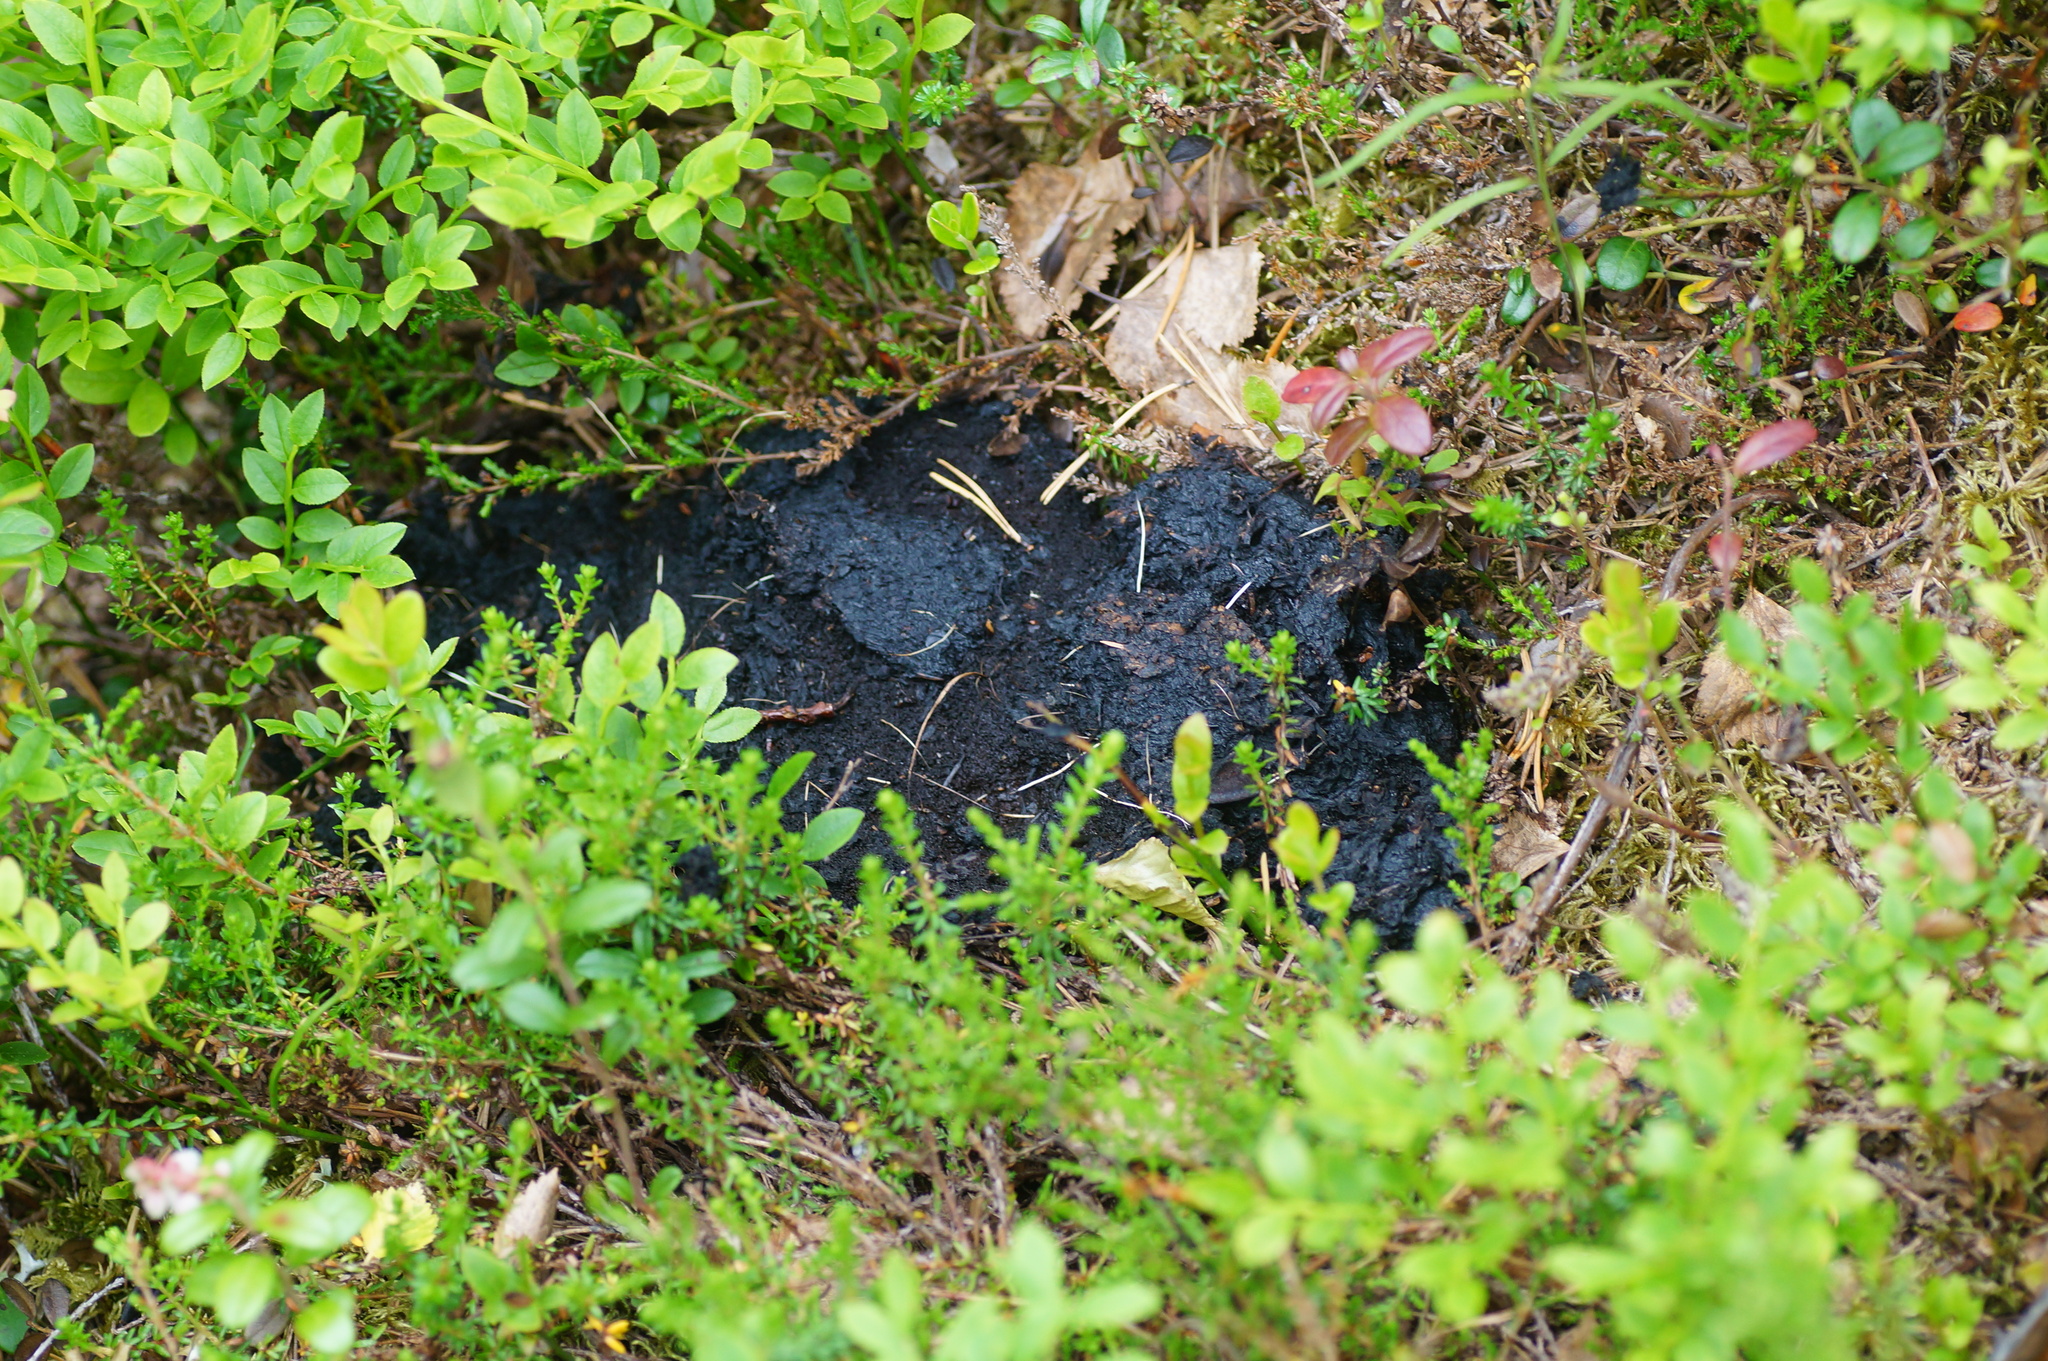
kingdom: Animalia
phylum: Chordata
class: Mammalia
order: Carnivora
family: Ursidae
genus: Ursus
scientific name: Ursus arctos
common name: Brown bear
